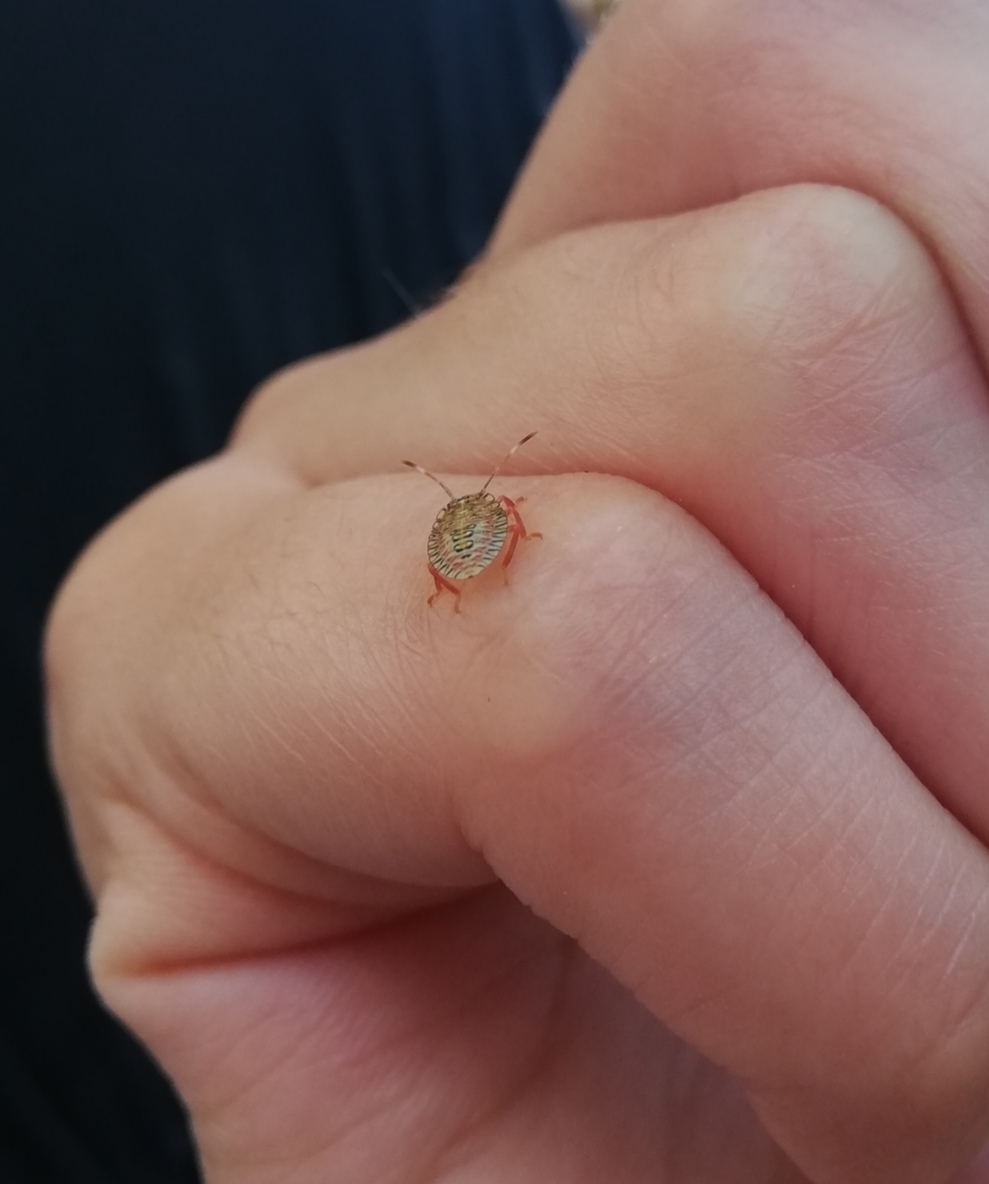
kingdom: Animalia
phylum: Arthropoda
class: Insecta
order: Hemiptera
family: Pentatomidae
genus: Loxa
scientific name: Loxa deducta
